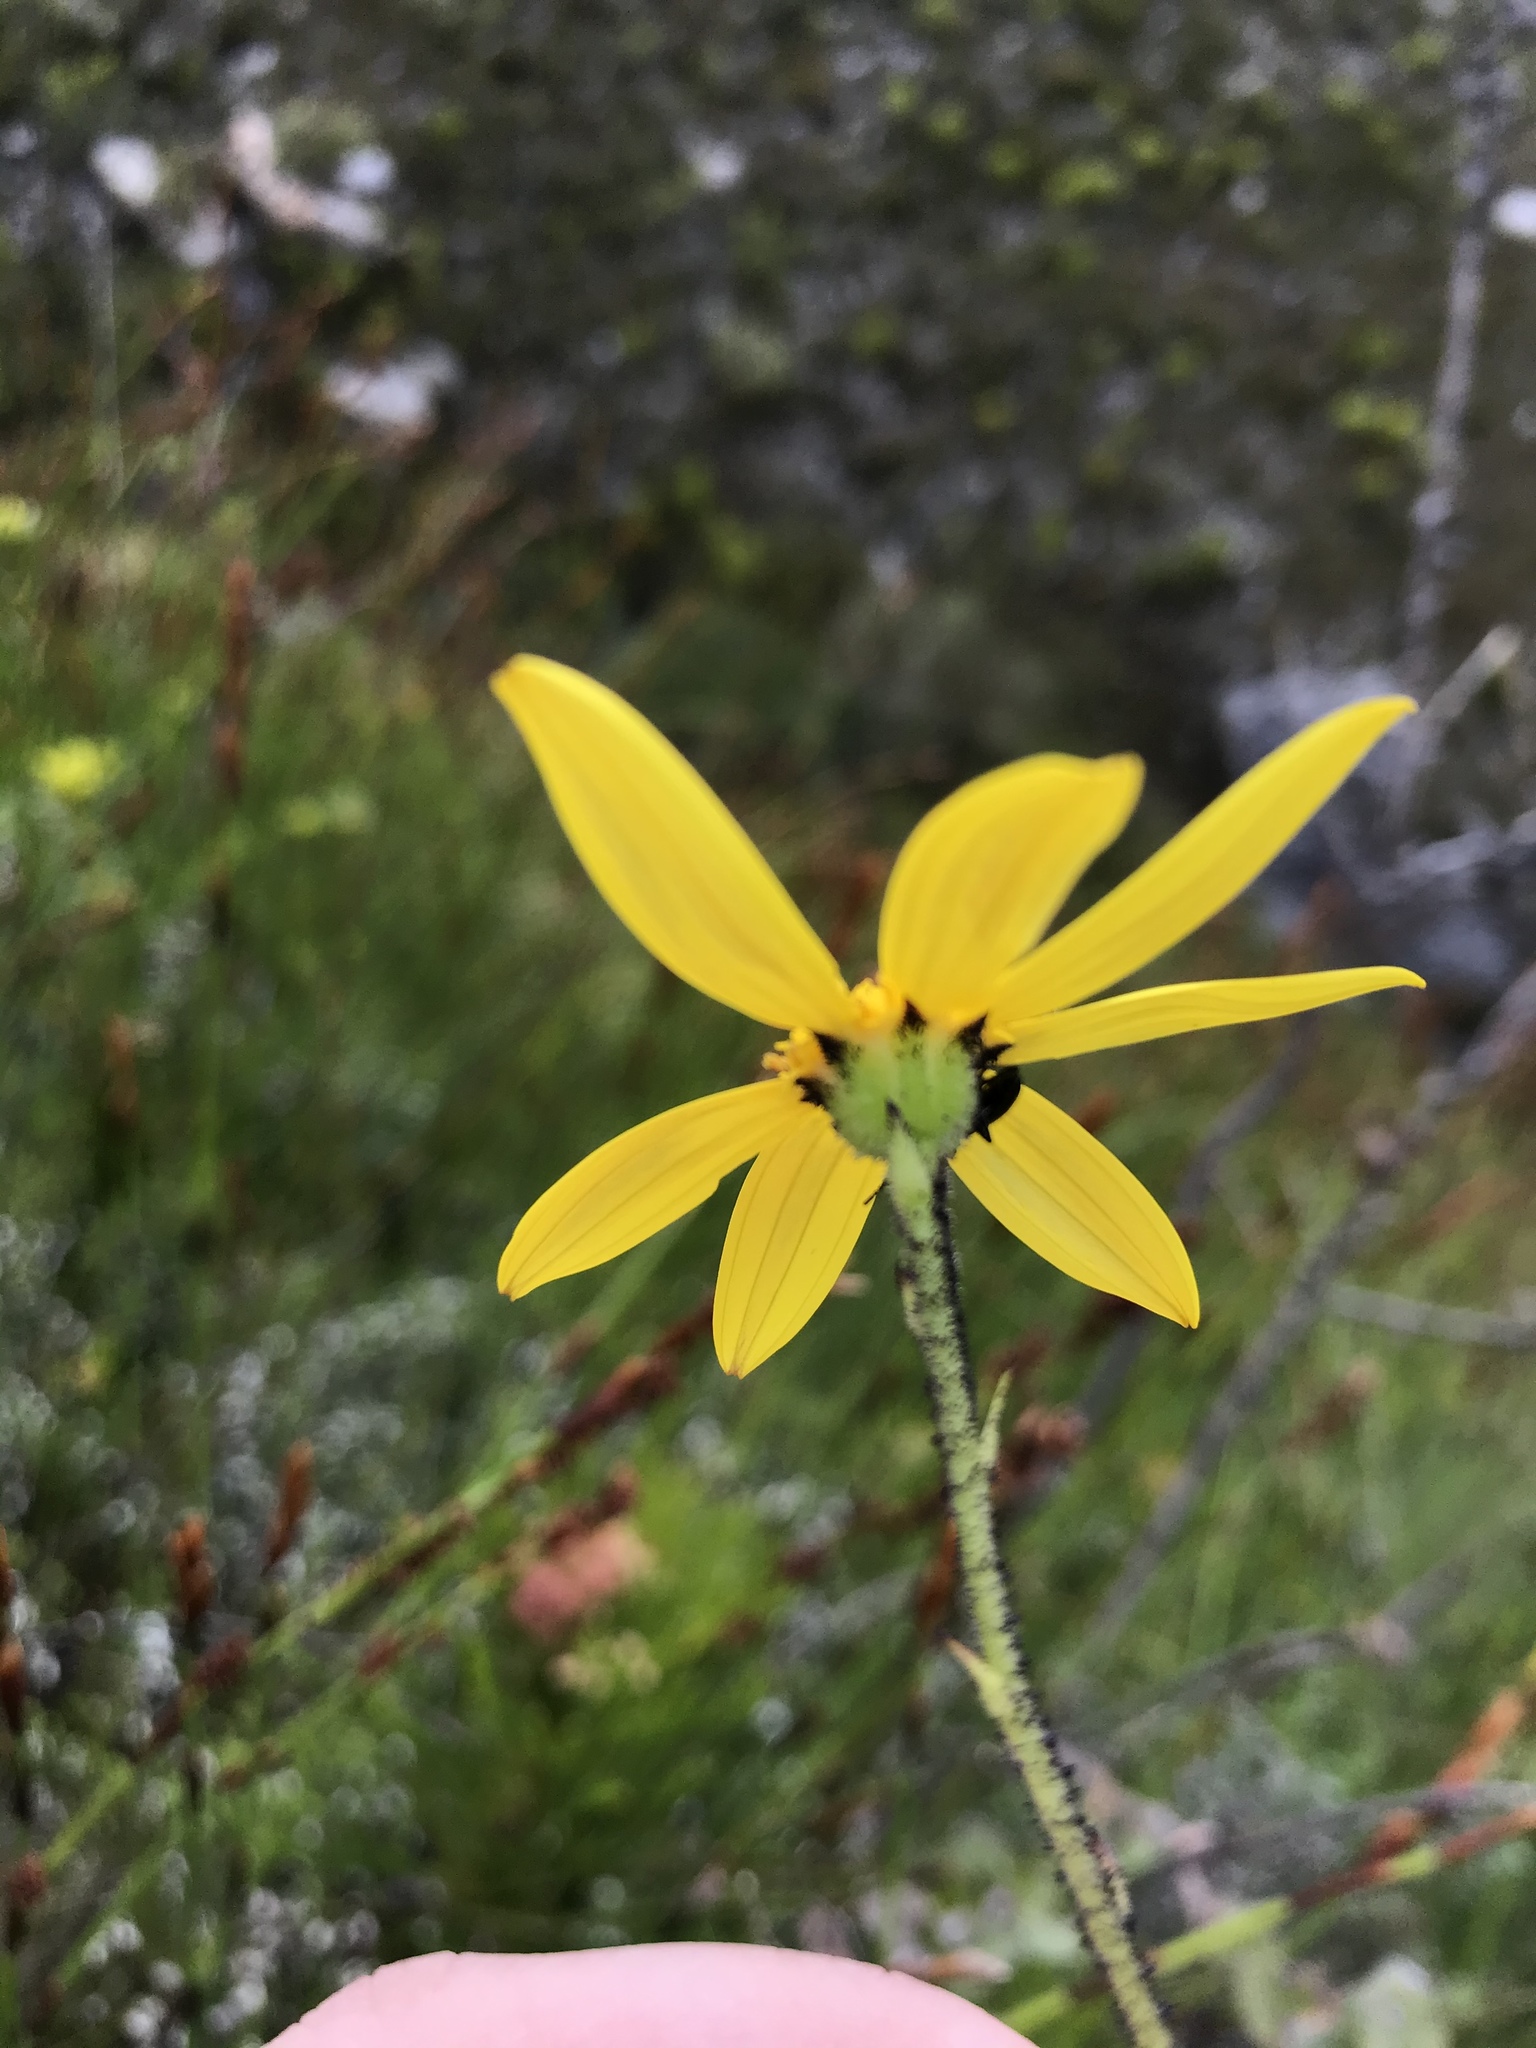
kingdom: Plantae
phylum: Tracheophyta
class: Magnoliopsida
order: Asterales
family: Asteraceae
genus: Osteospermum
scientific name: Osteospermum rotundifolium
